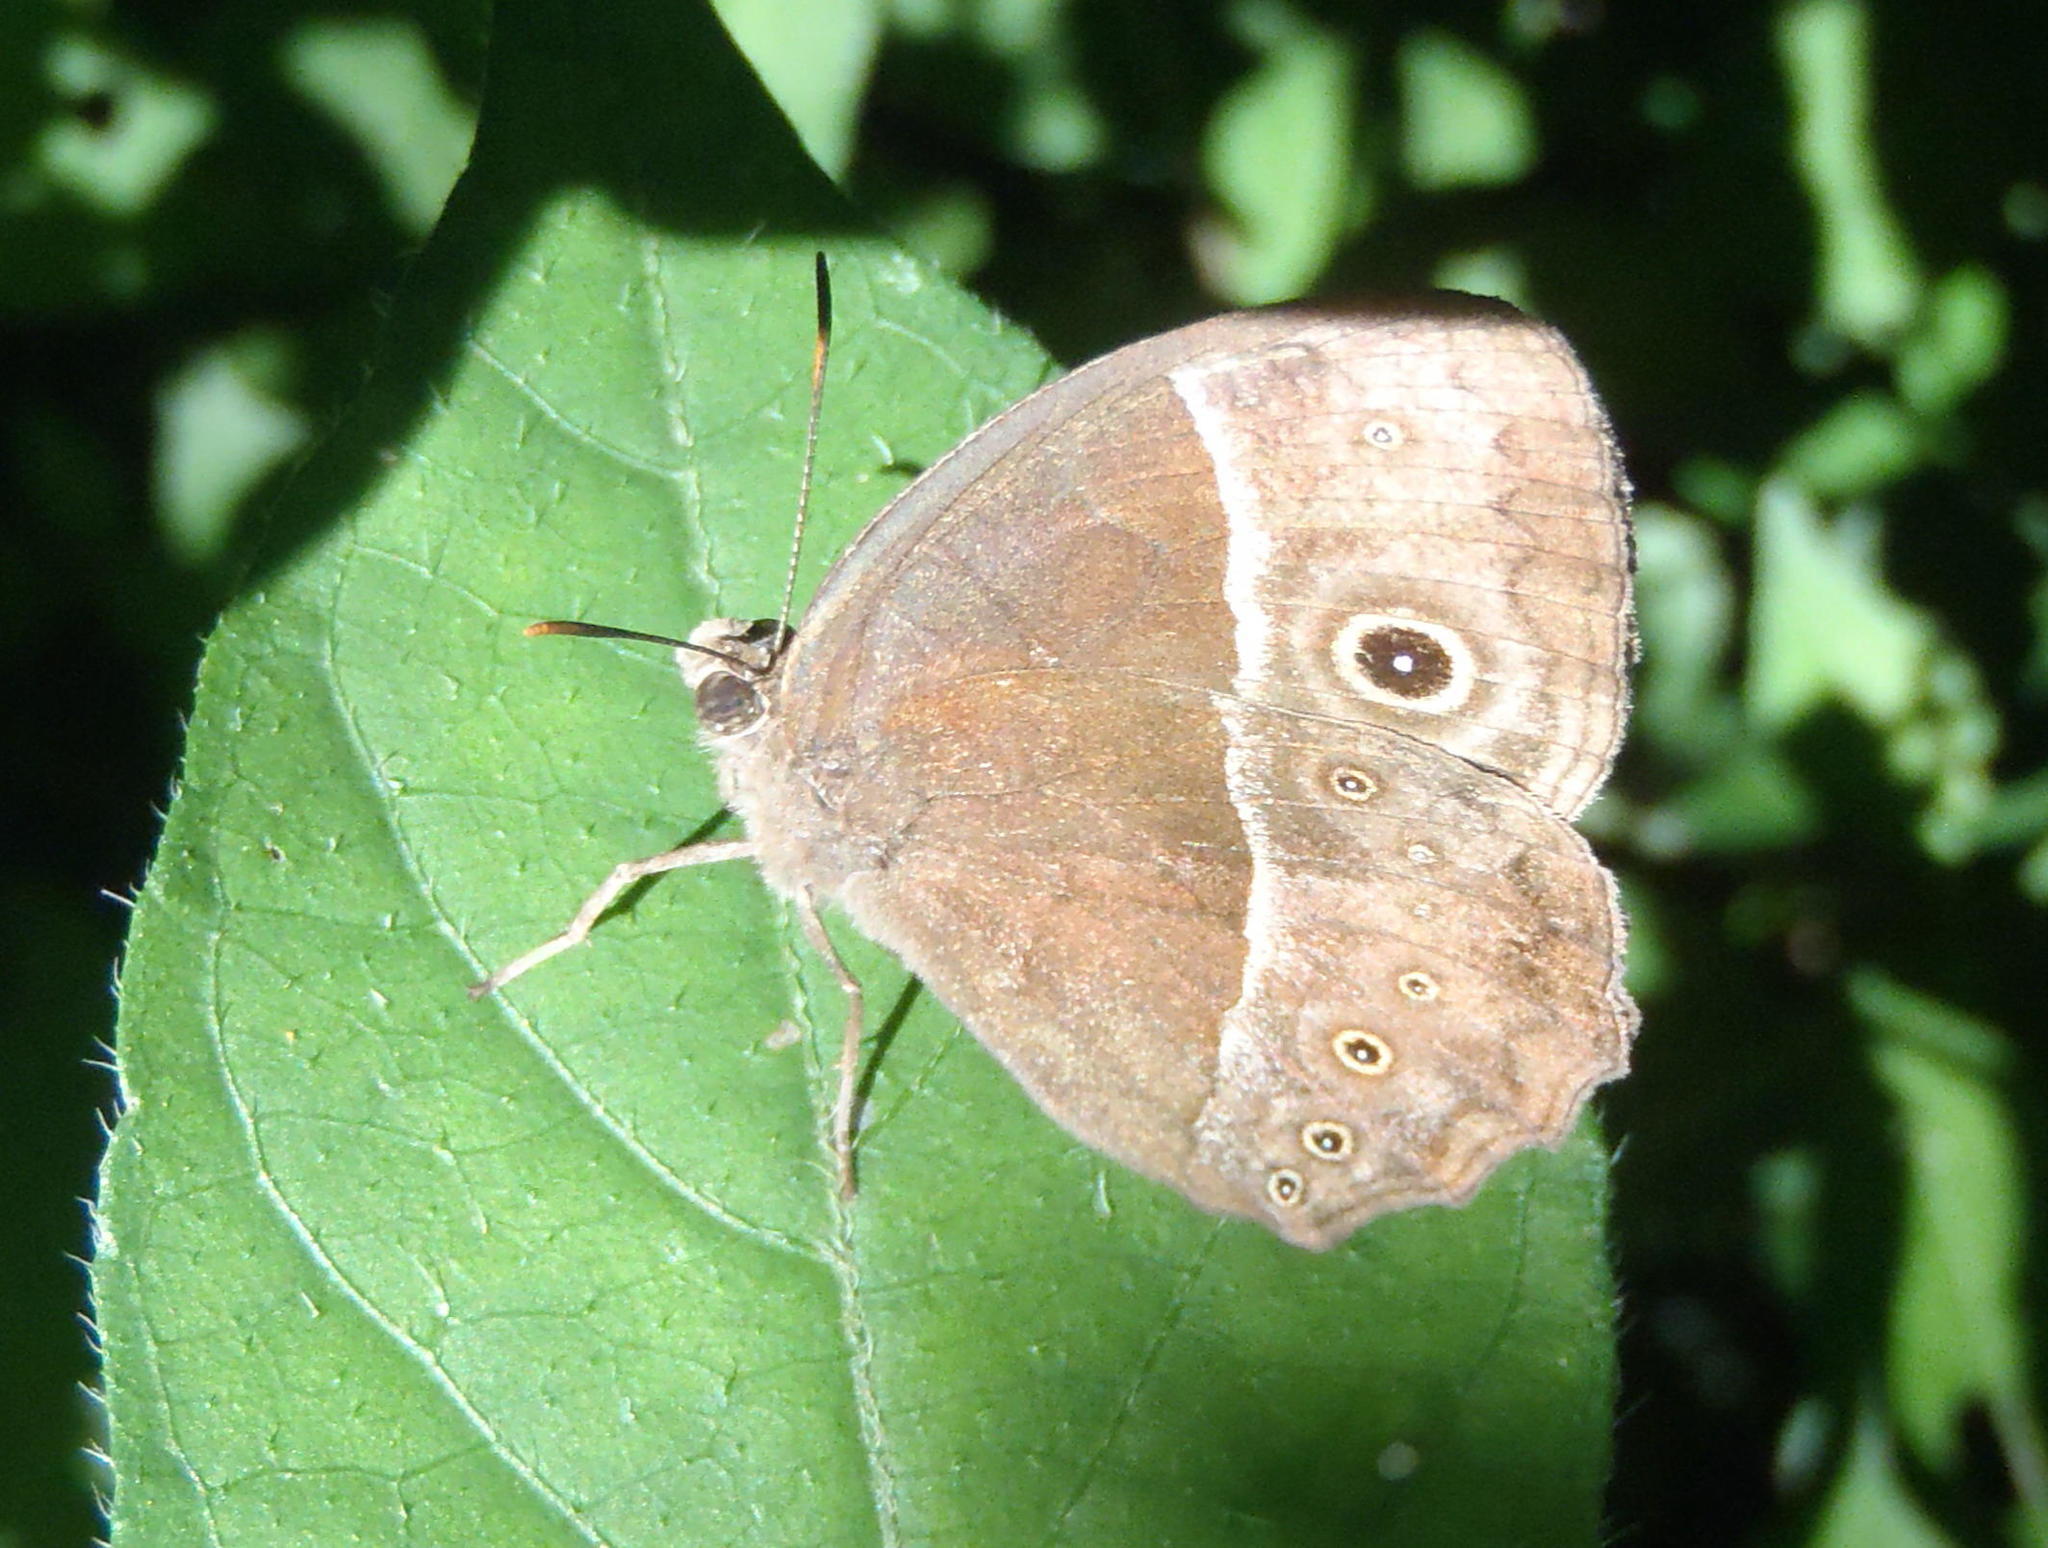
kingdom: Animalia
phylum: Arthropoda
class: Insecta
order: Lepidoptera
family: Nymphalidae
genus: Mycalesis
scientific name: Mycalesis rhacotis
